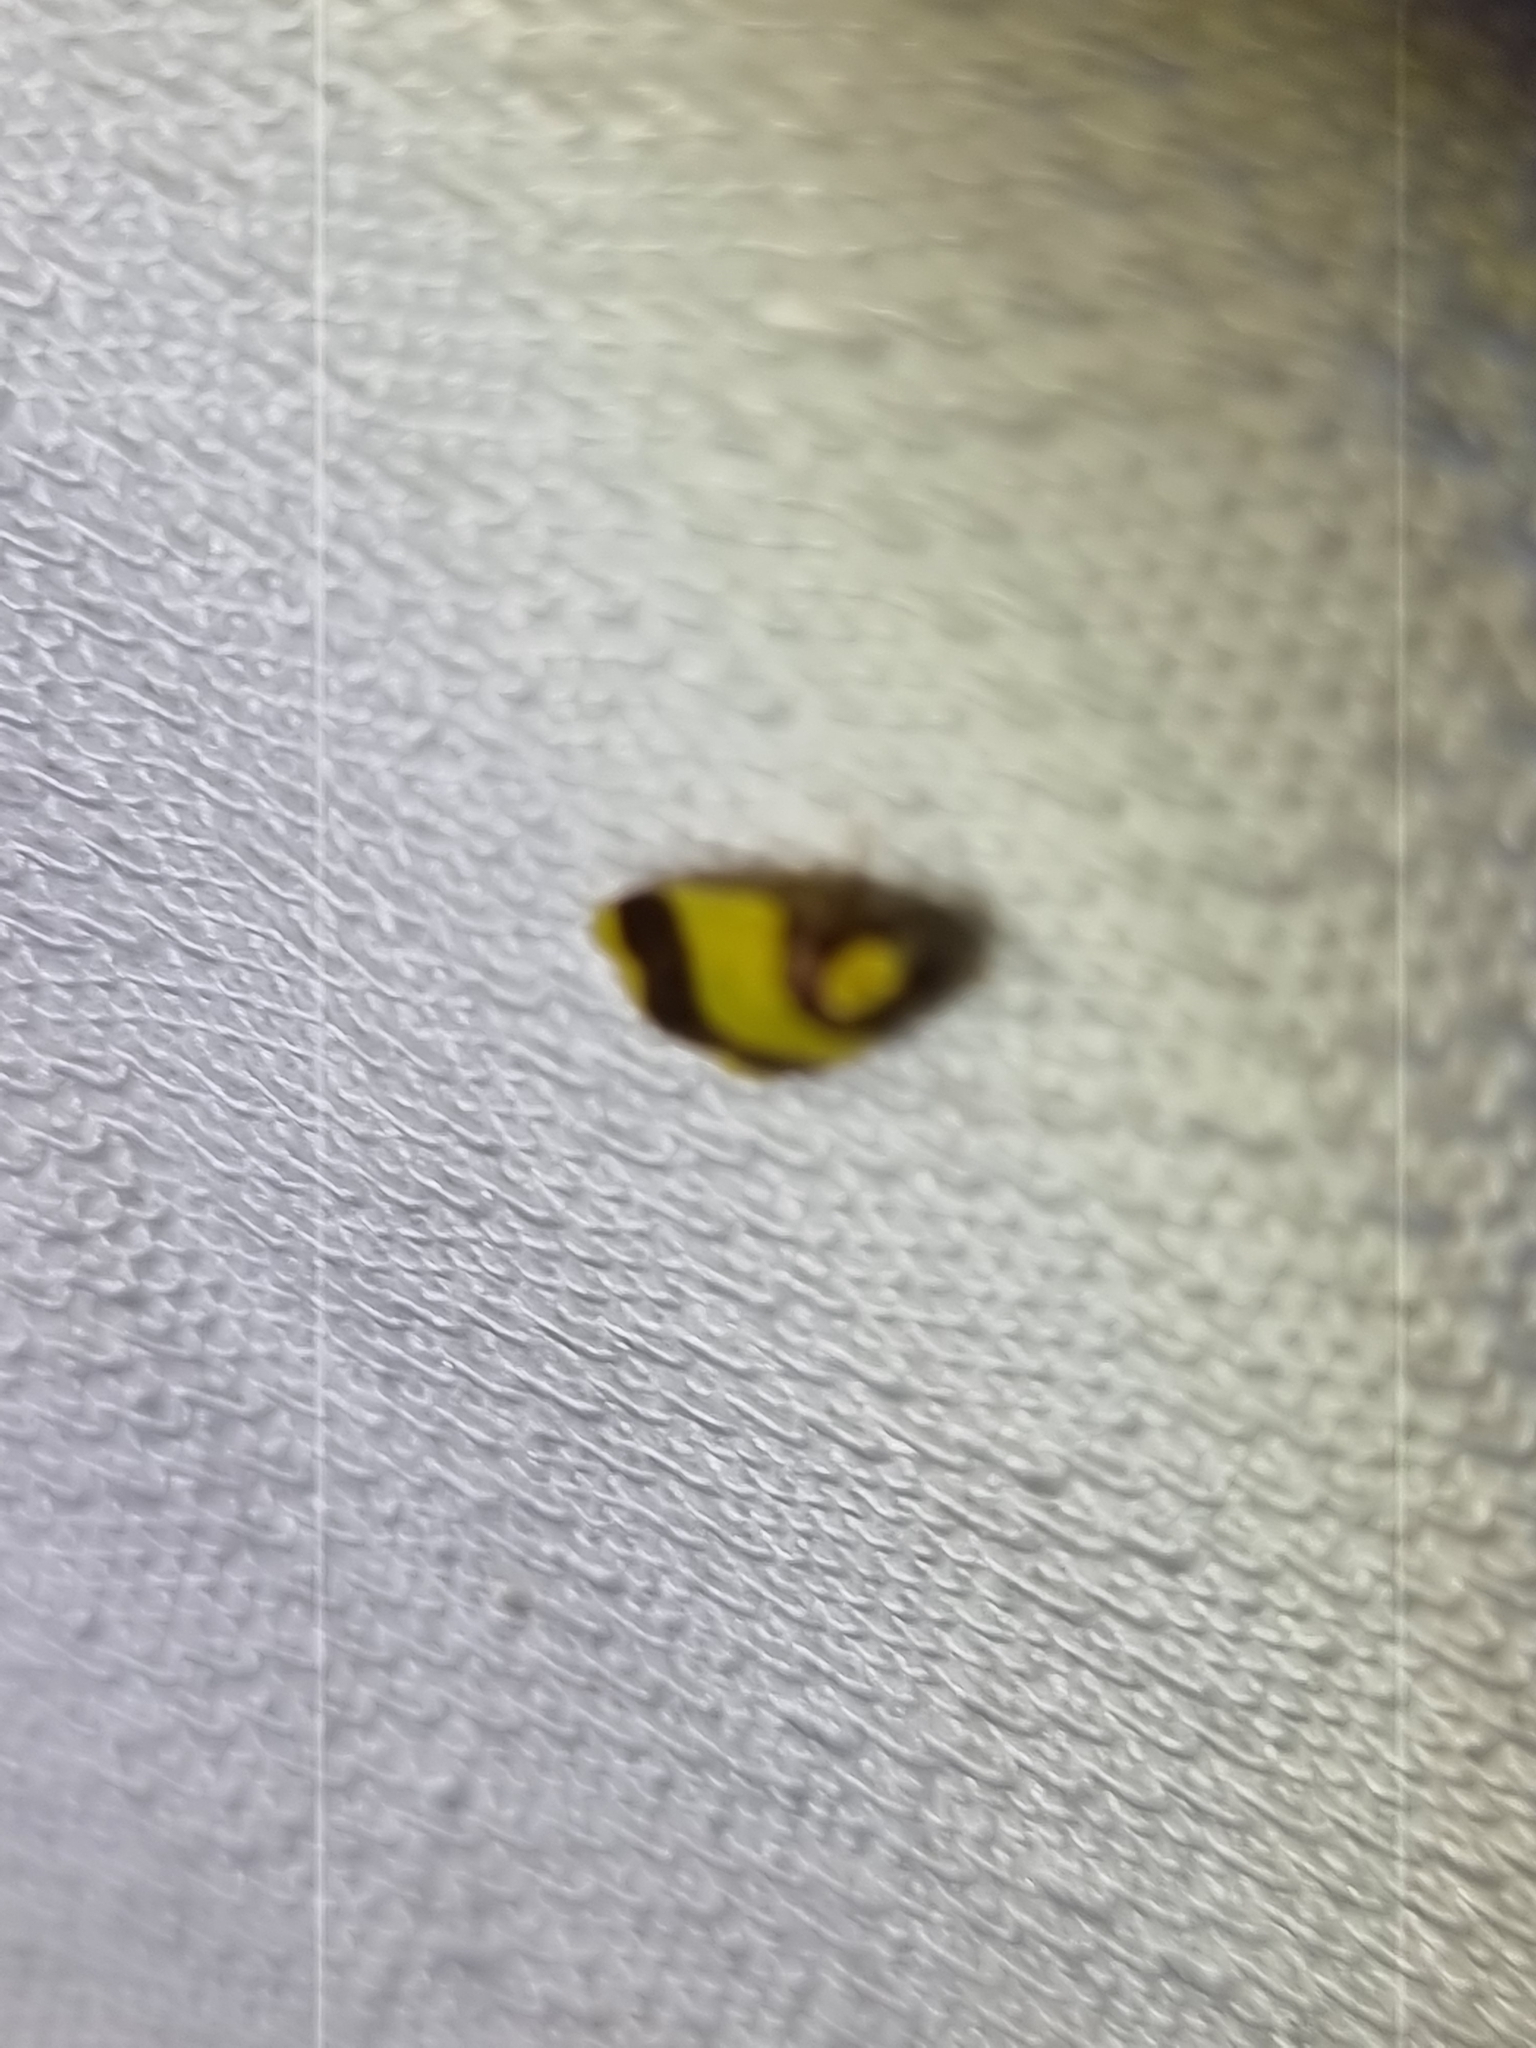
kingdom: Animalia
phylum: Arthropoda
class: Insecta
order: Lepidoptera
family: Erebidae
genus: Heterallactis
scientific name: Heterallactis microchrysa
